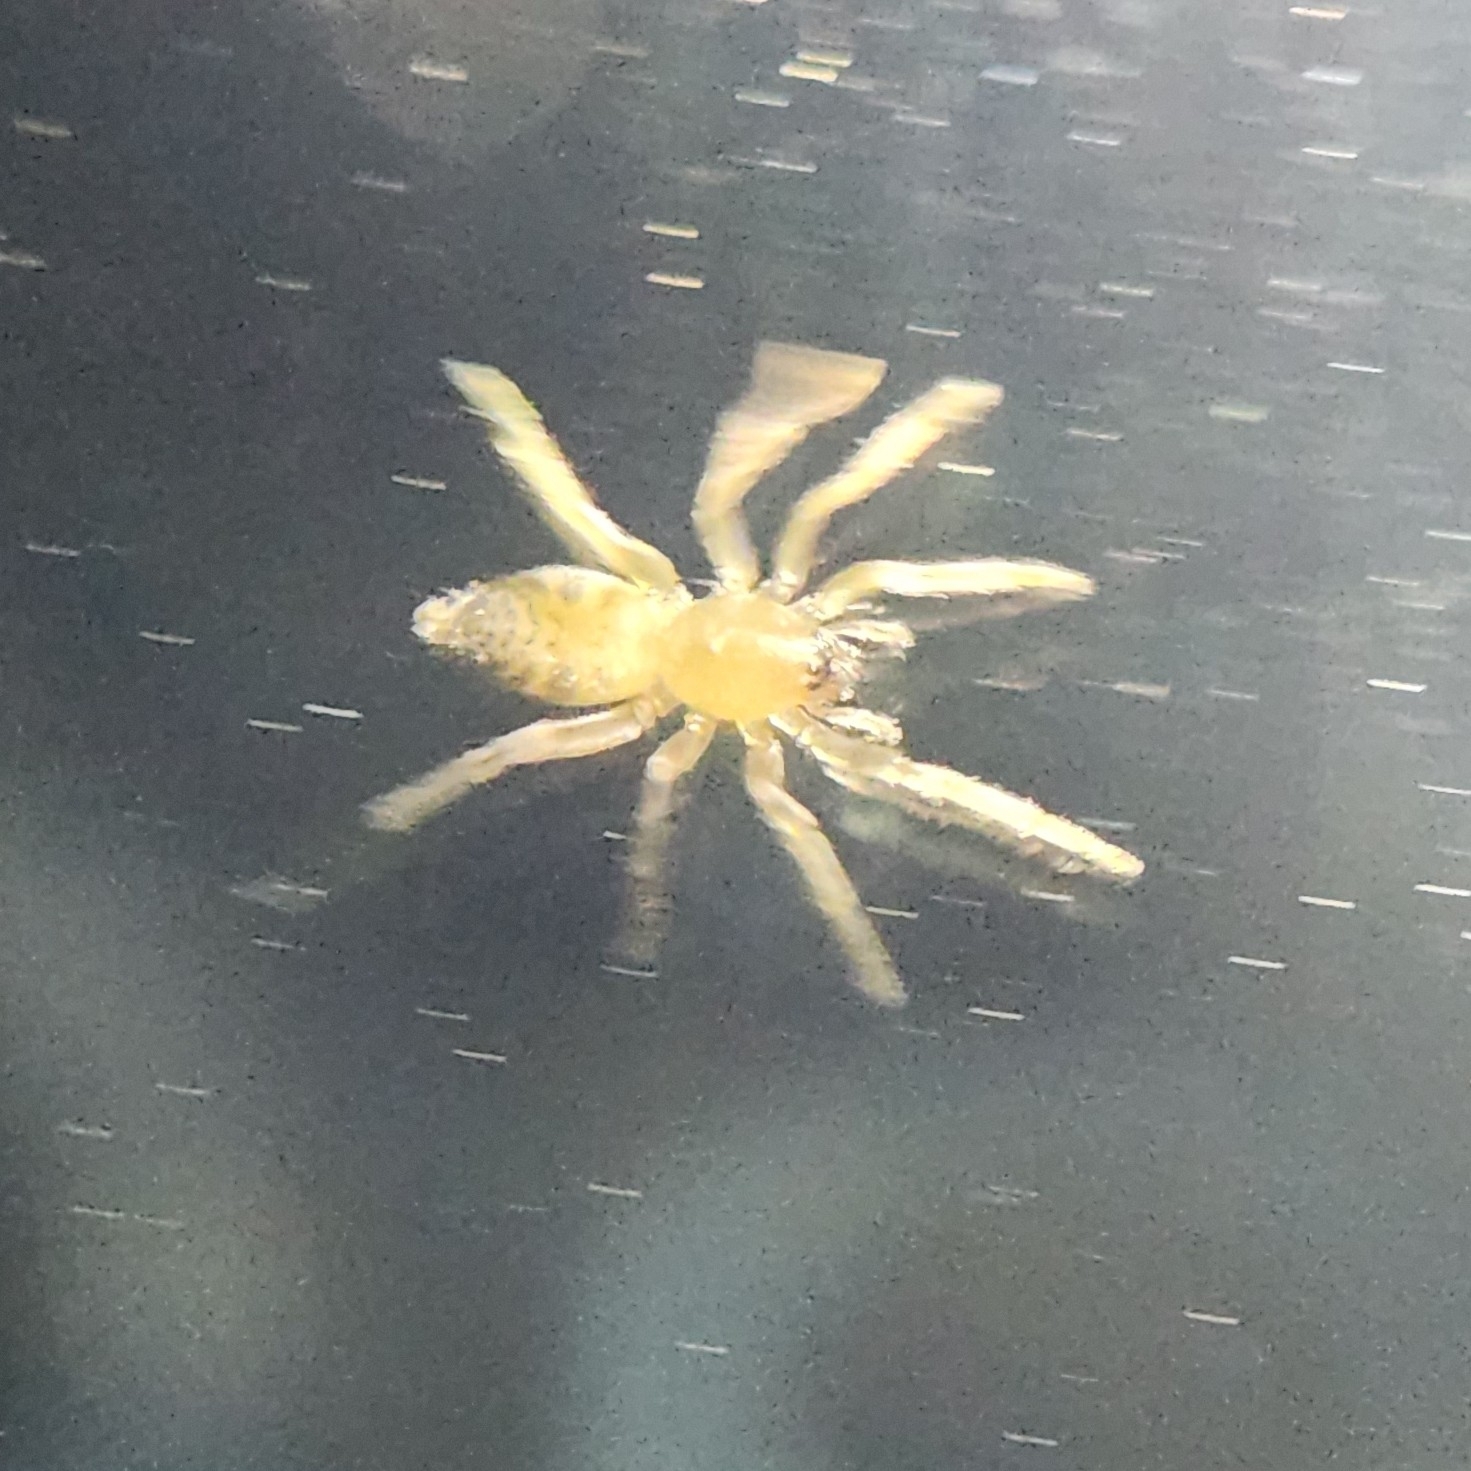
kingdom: Animalia
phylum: Arthropoda
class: Arachnida
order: Araneae
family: Clubionidae
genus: Elaver
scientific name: Elaver excepta
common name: White sac spider
